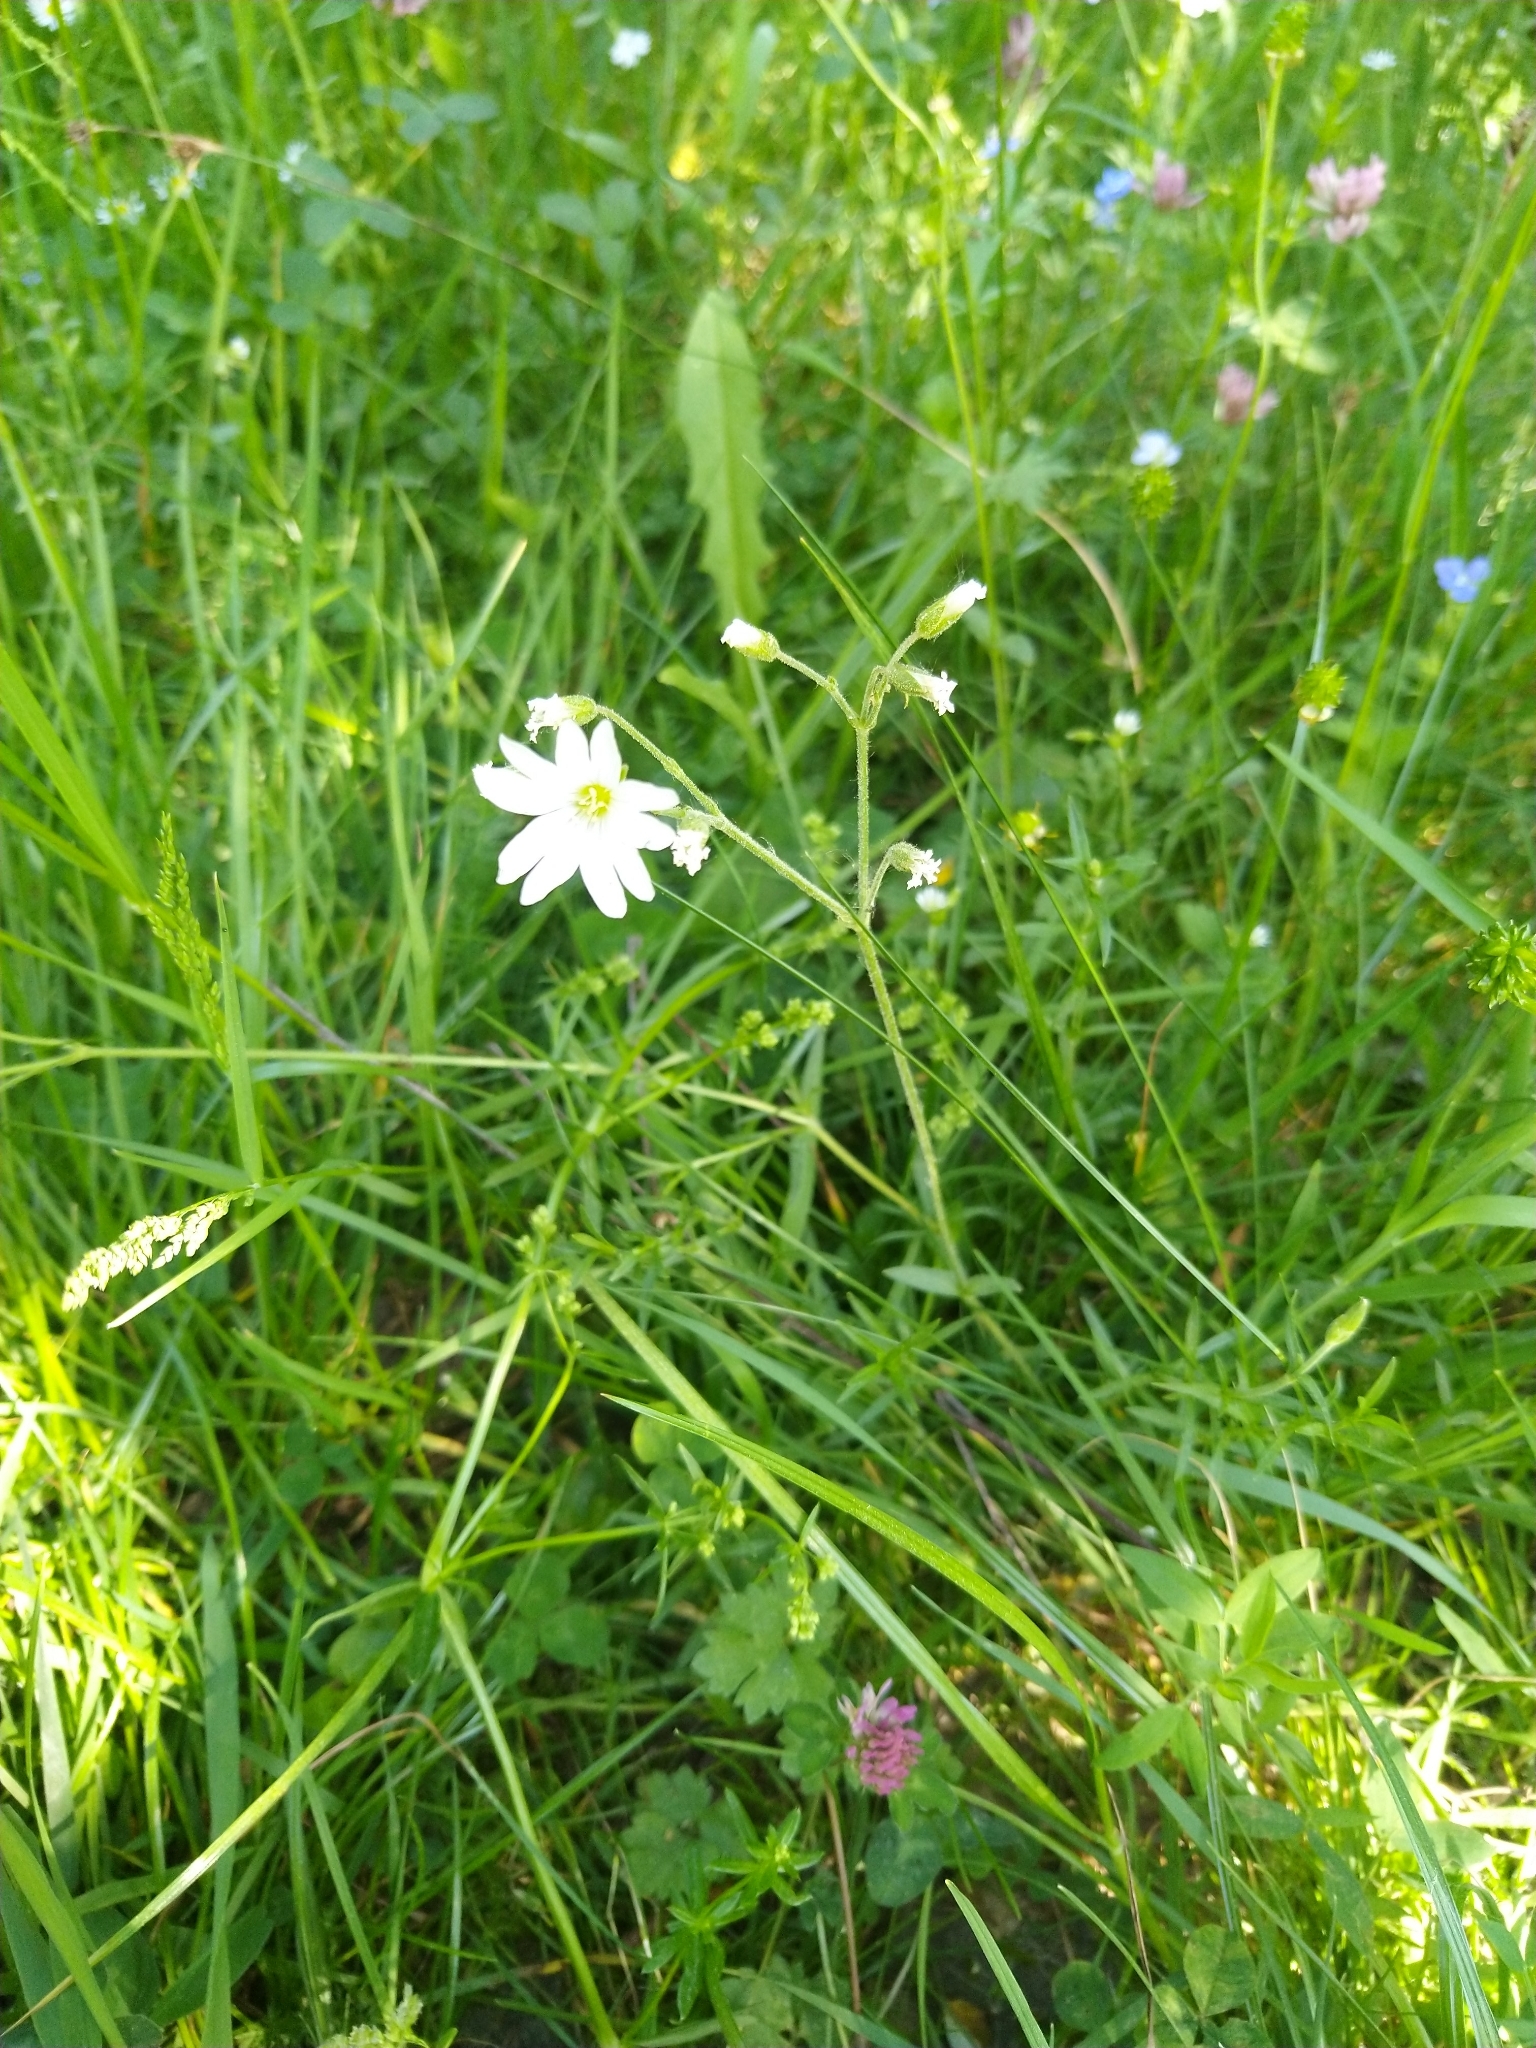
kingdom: Plantae
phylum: Tracheophyta
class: Magnoliopsida
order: Caryophyllales
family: Caryophyllaceae
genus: Cerastium
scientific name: Cerastium arvense
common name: Field mouse-ear
